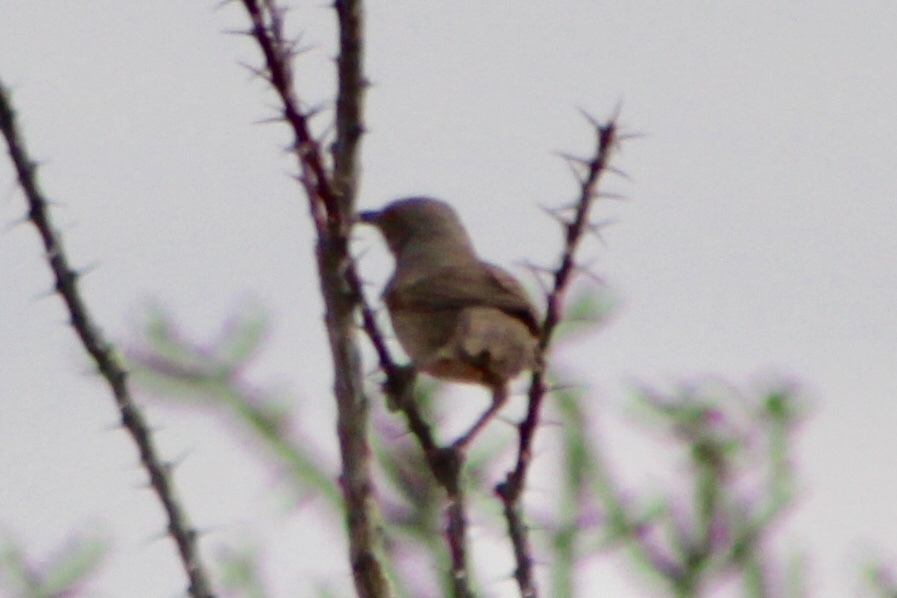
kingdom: Animalia
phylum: Chordata
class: Aves
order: Passeriformes
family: Mimidae
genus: Toxostoma
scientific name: Toxostoma curvirostre
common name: Curve-billed thrasher
